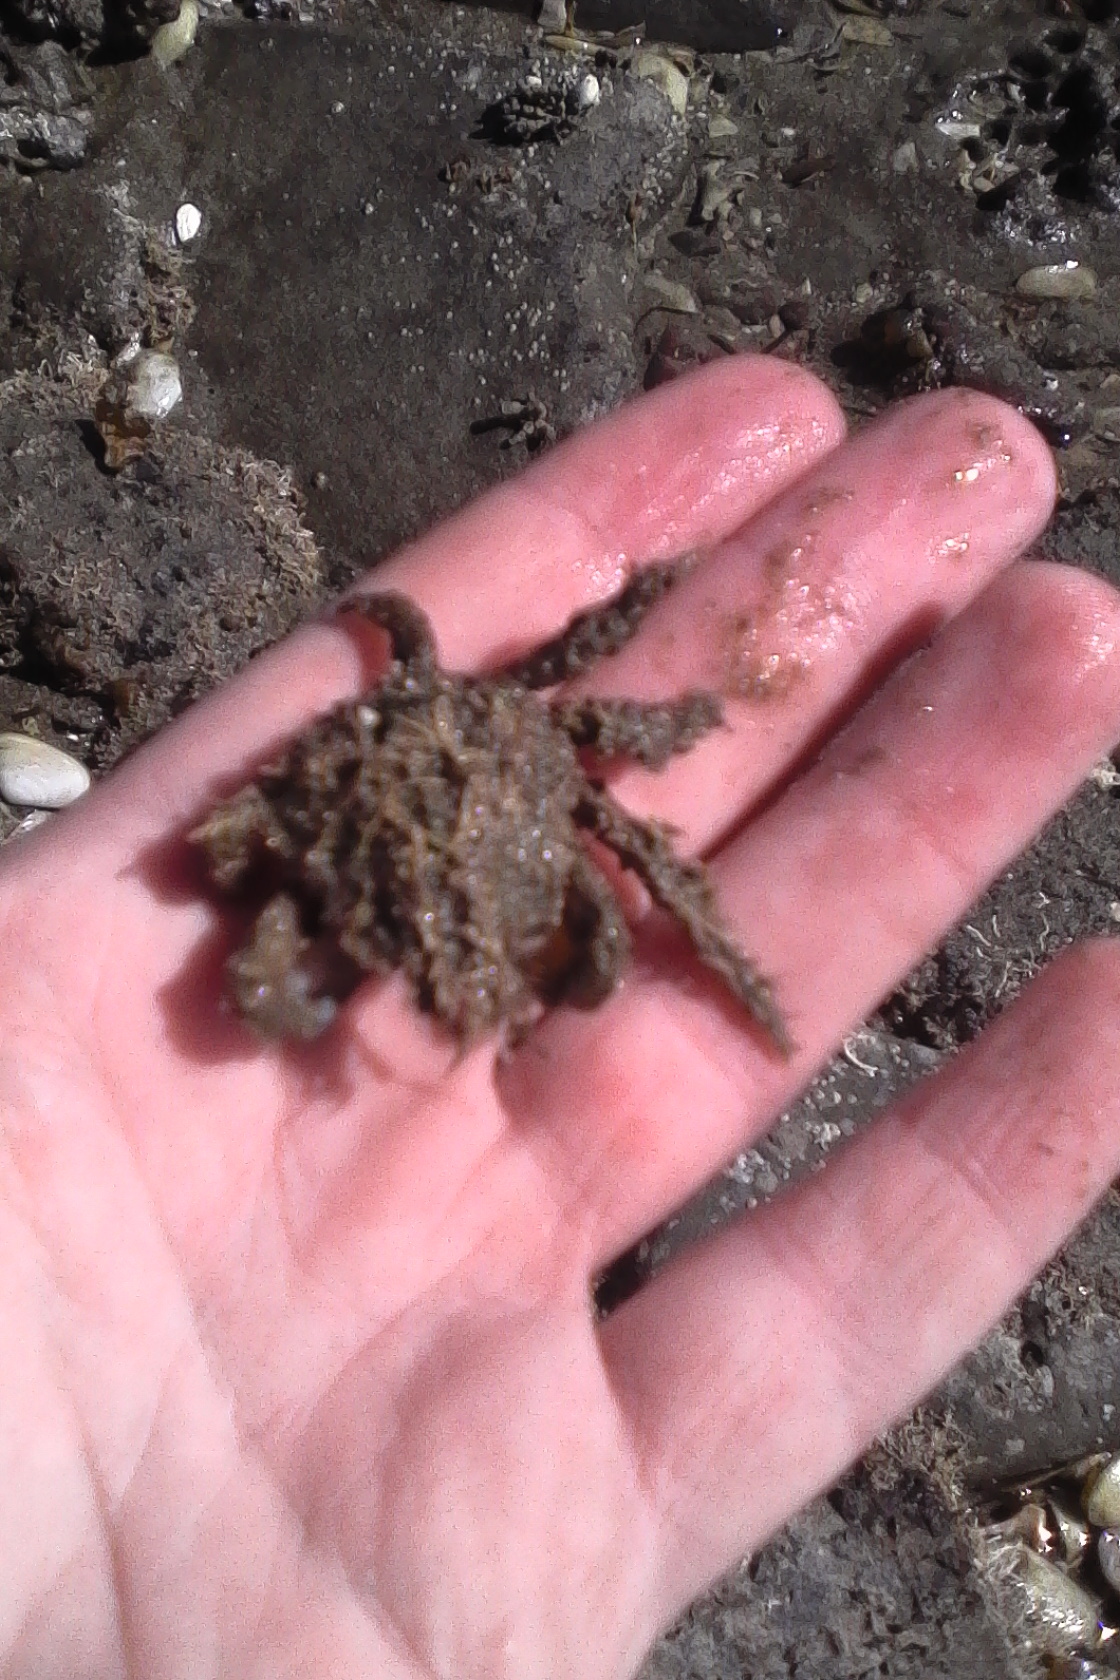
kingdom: Animalia
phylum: Arthropoda
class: Malacostraca
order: Decapoda
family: Majidae
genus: Notomithrax
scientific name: Notomithrax minor
